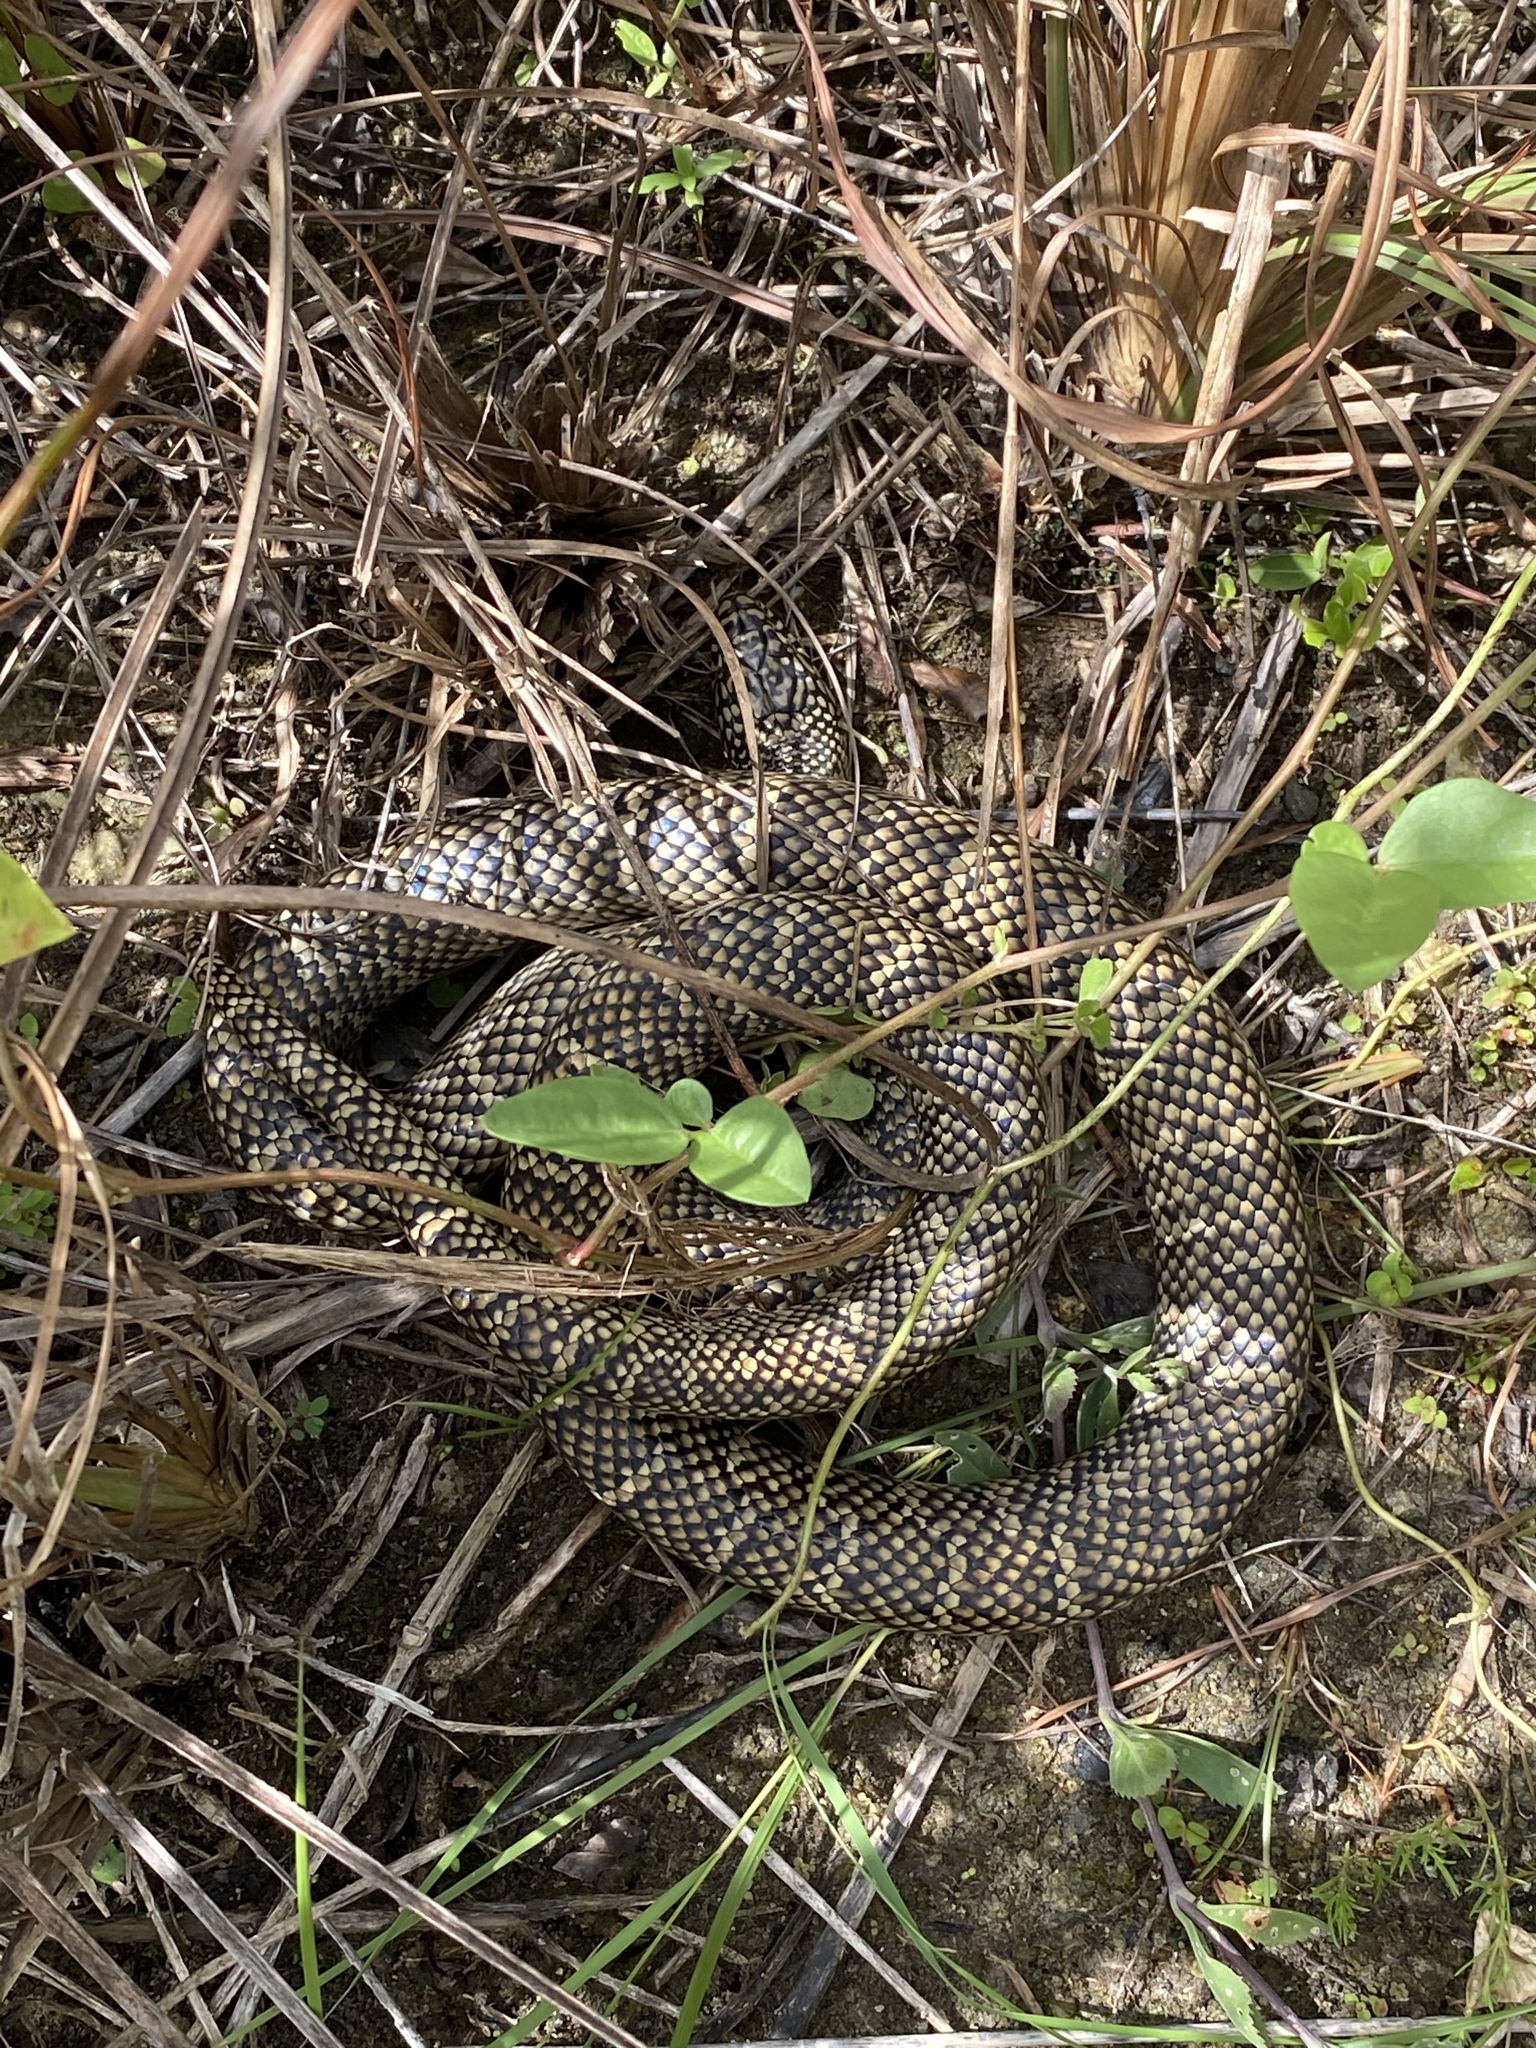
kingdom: Animalia
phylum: Chordata
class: Squamata
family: Colubridae
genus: Lampropeltis
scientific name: Lampropeltis getula
